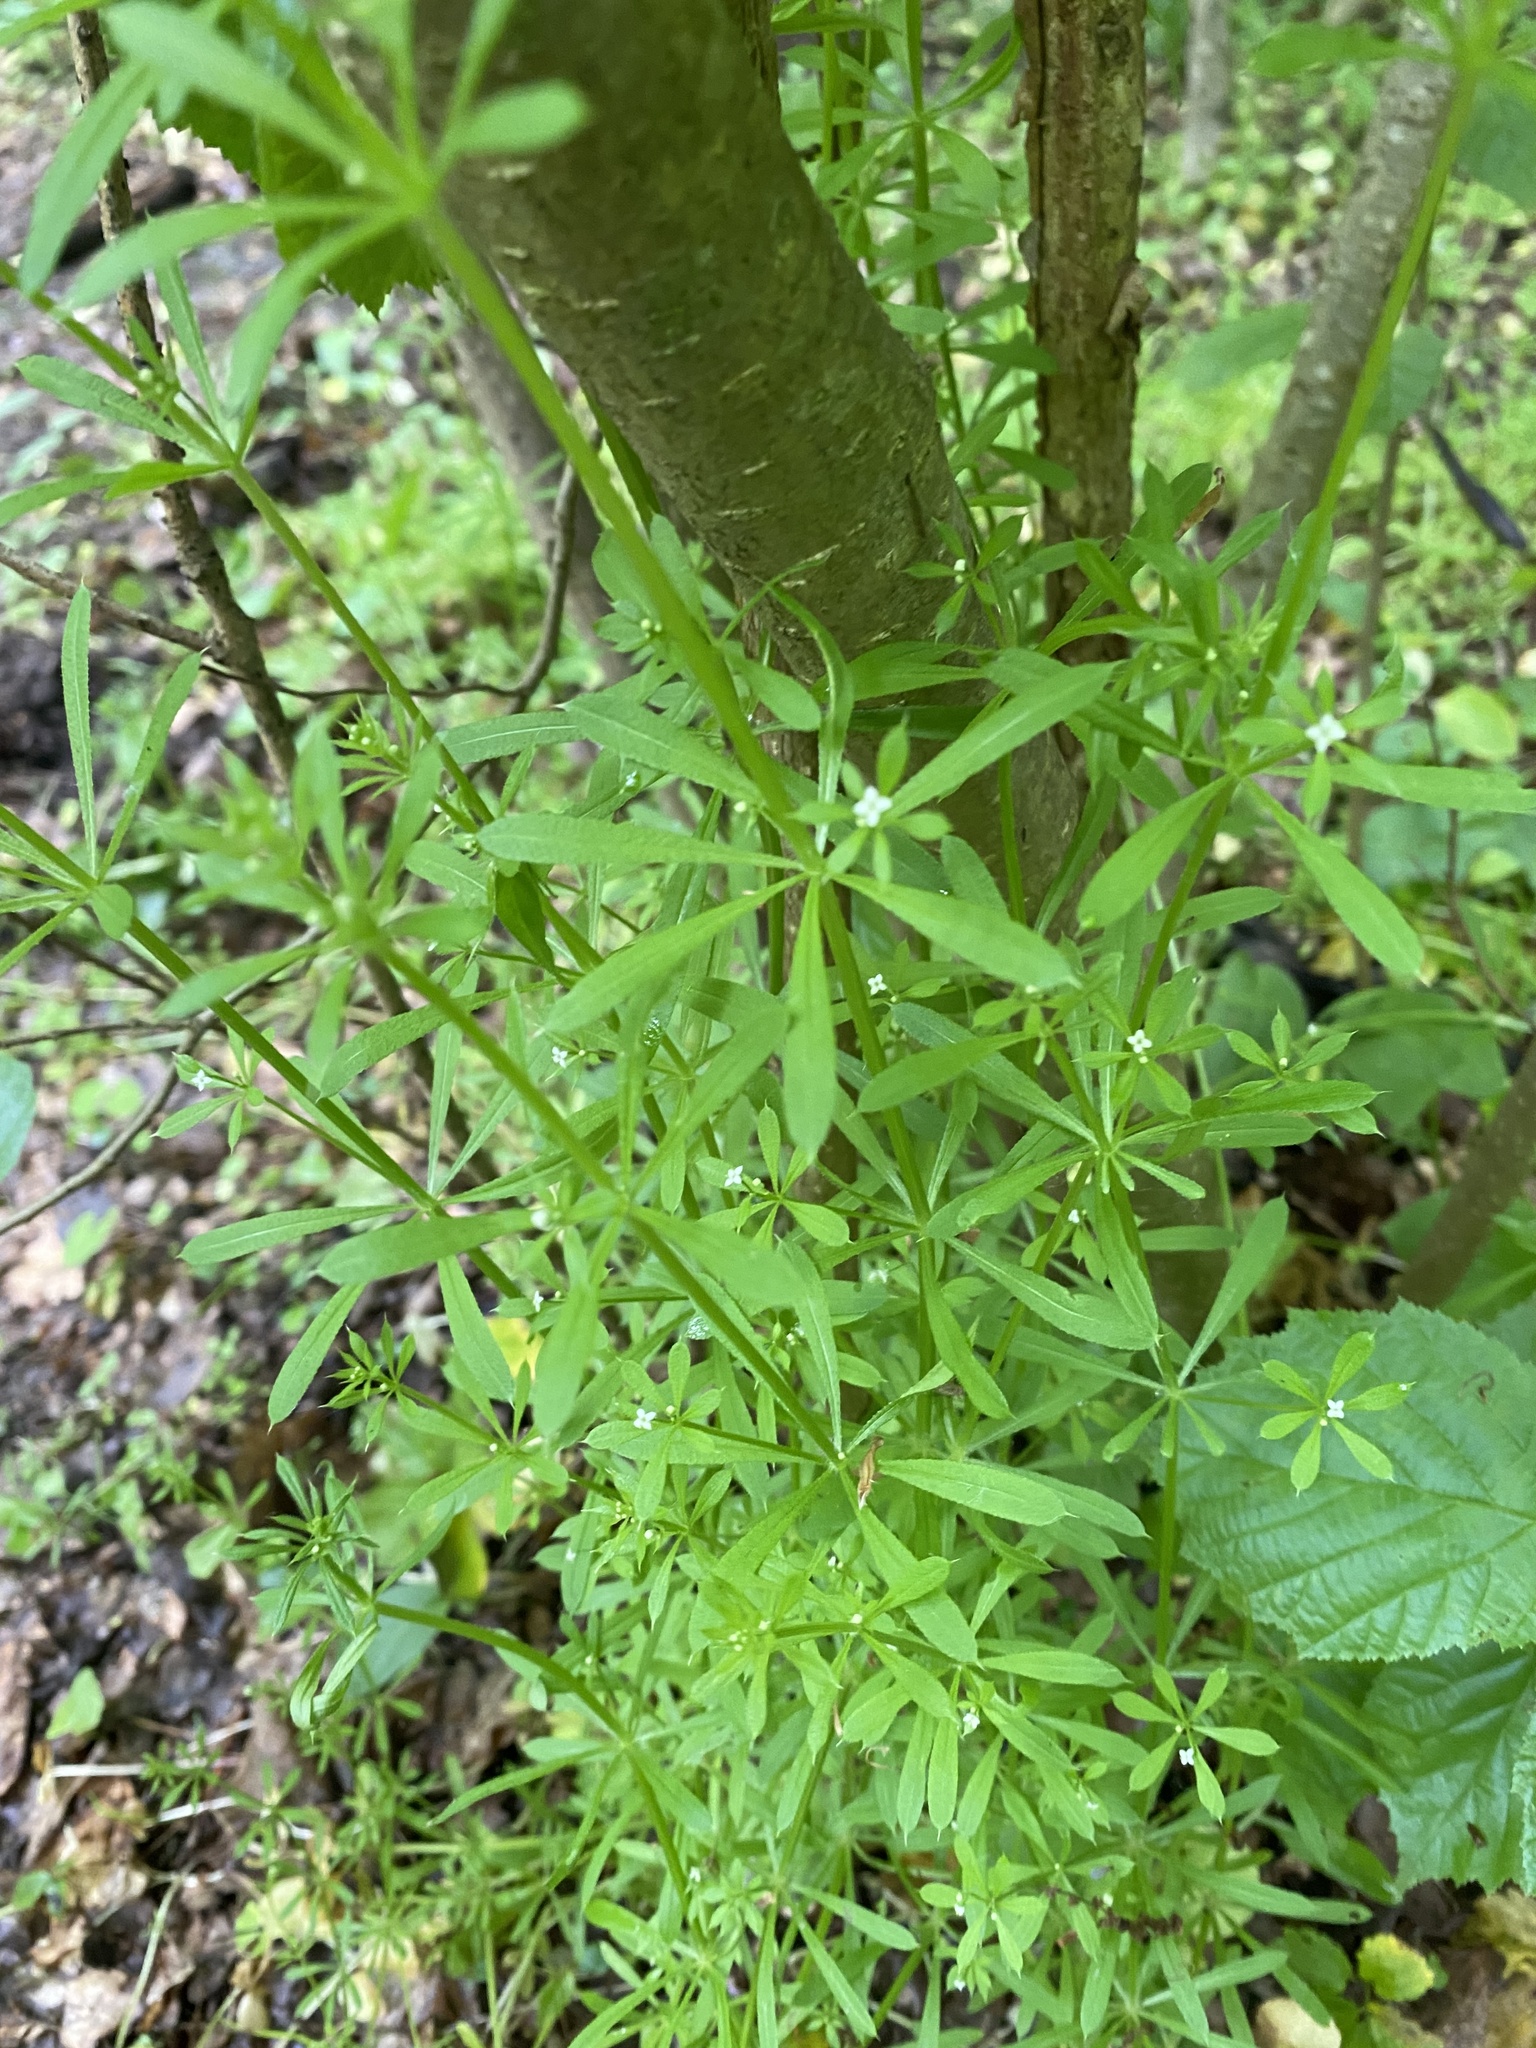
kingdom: Plantae
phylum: Tracheophyta
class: Magnoliopsida
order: Gentianales
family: Rubiaceae
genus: Galium
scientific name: Galium aparine
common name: Cleavers
